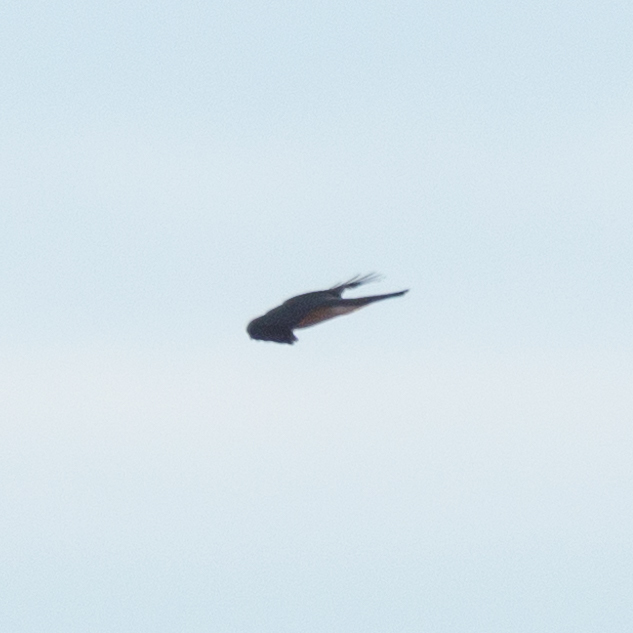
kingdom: Animalia
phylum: Chordata
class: Aves
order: Accipitriformes
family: Accipitridae
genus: Accipiter
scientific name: Accipiter nisus
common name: Eurasian sparrowhawk
